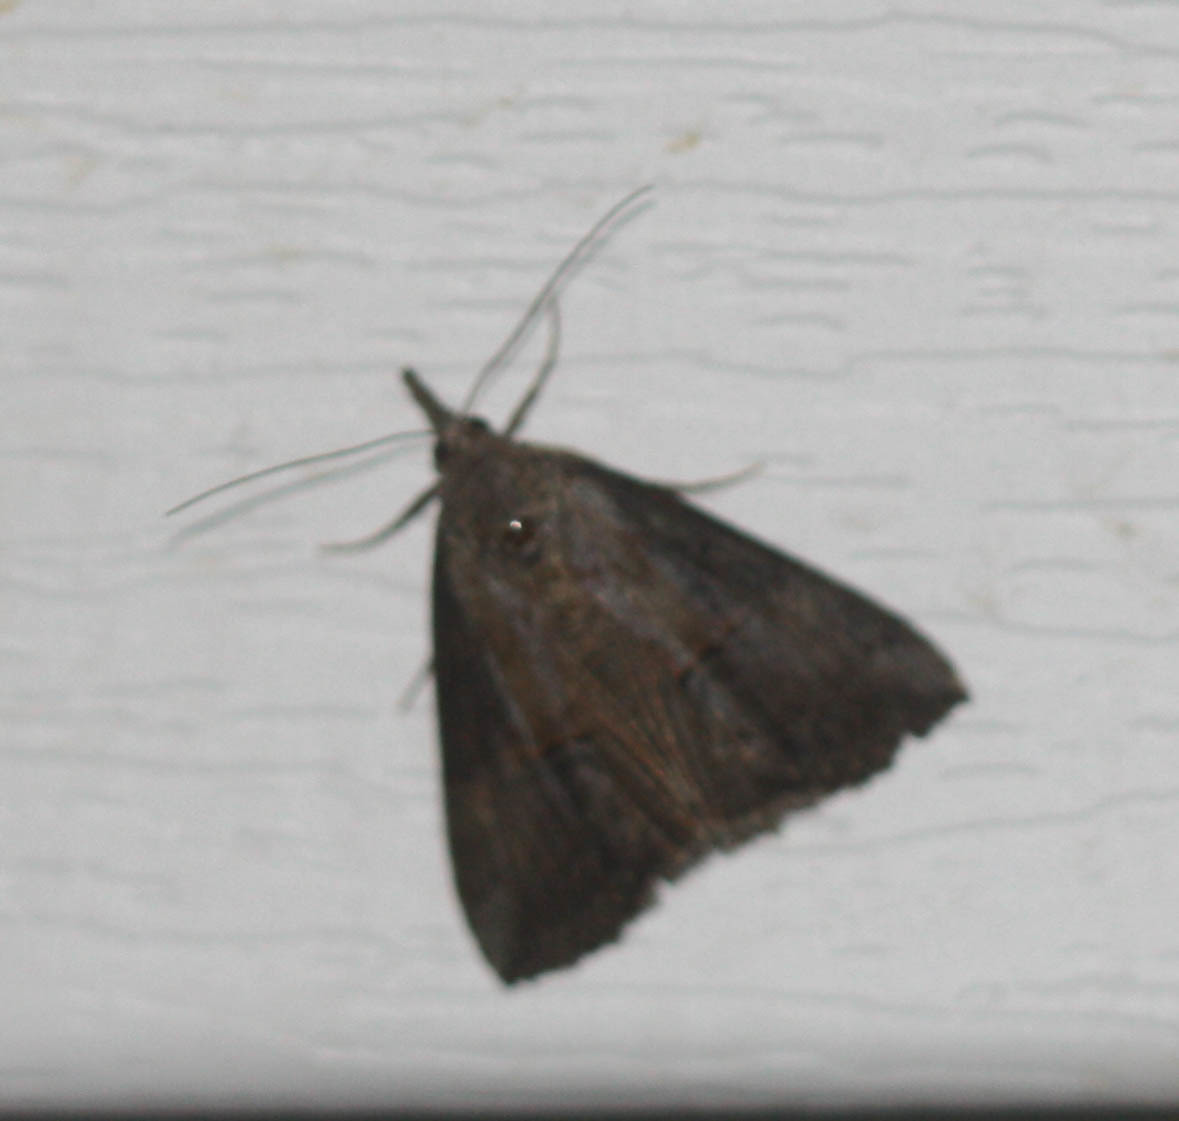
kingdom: Animalia
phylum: Arthropoda
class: Insecta
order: Lepidoptera
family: Erebidae
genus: Hypena
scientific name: Hypena scabra
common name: Green cloverworm
